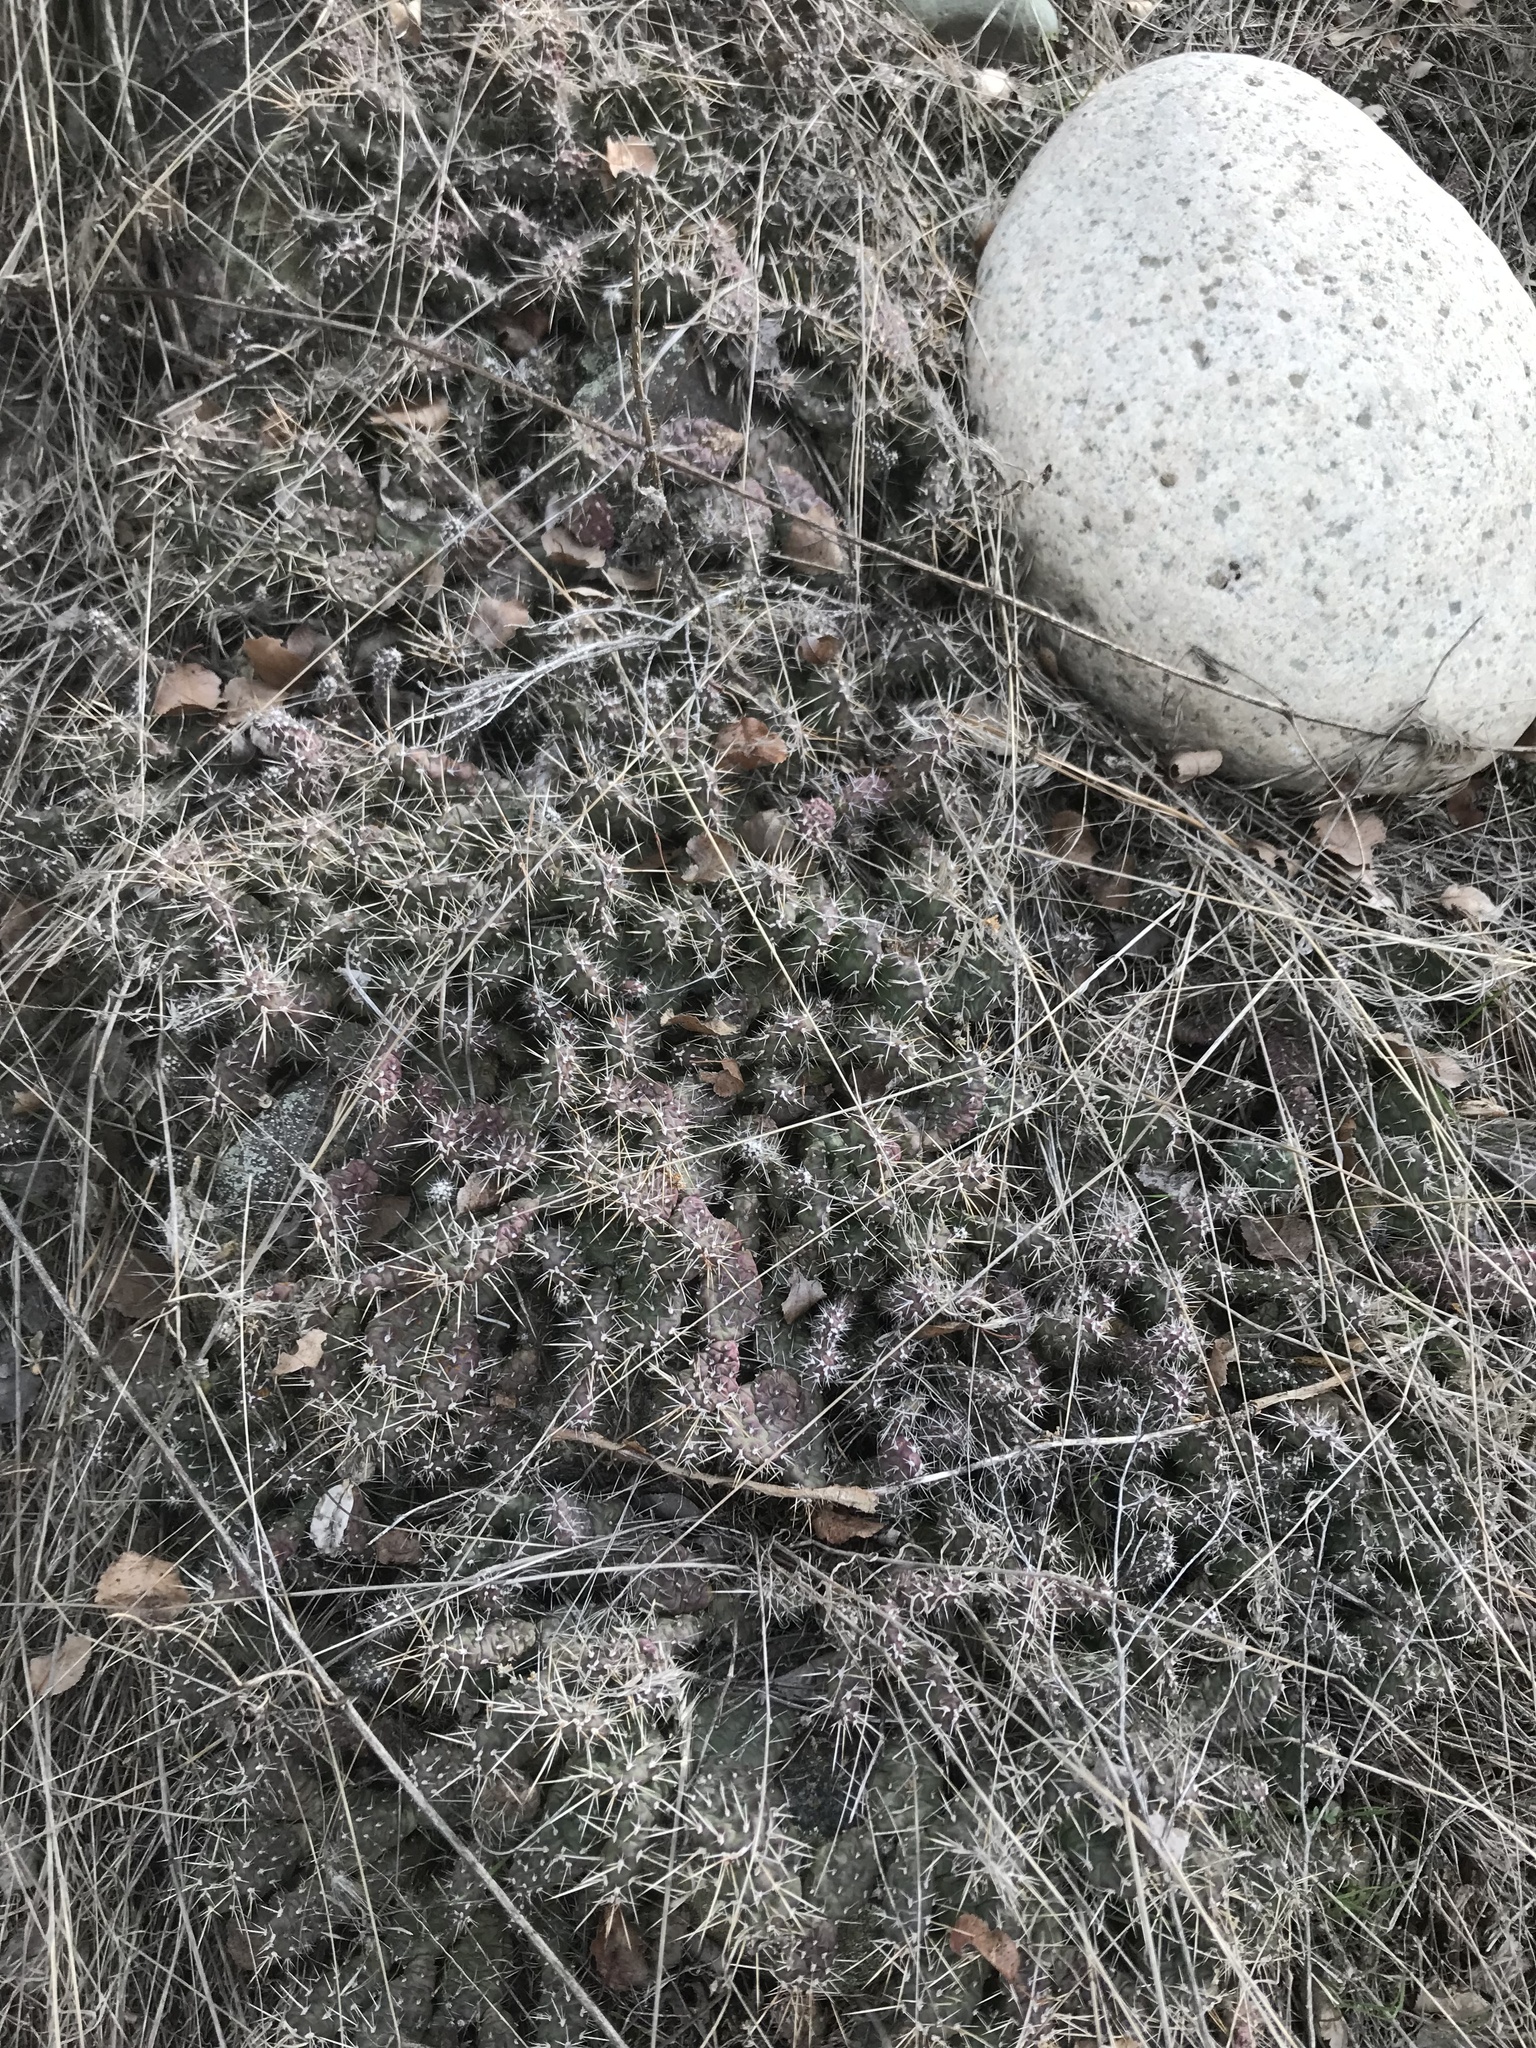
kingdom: Plantae
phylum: Tracheophyta
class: Magnoliopsida
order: Caryophyllales
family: Cactaceae
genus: Opuntia
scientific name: Opuntia fragilis
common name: Brittle cactus
